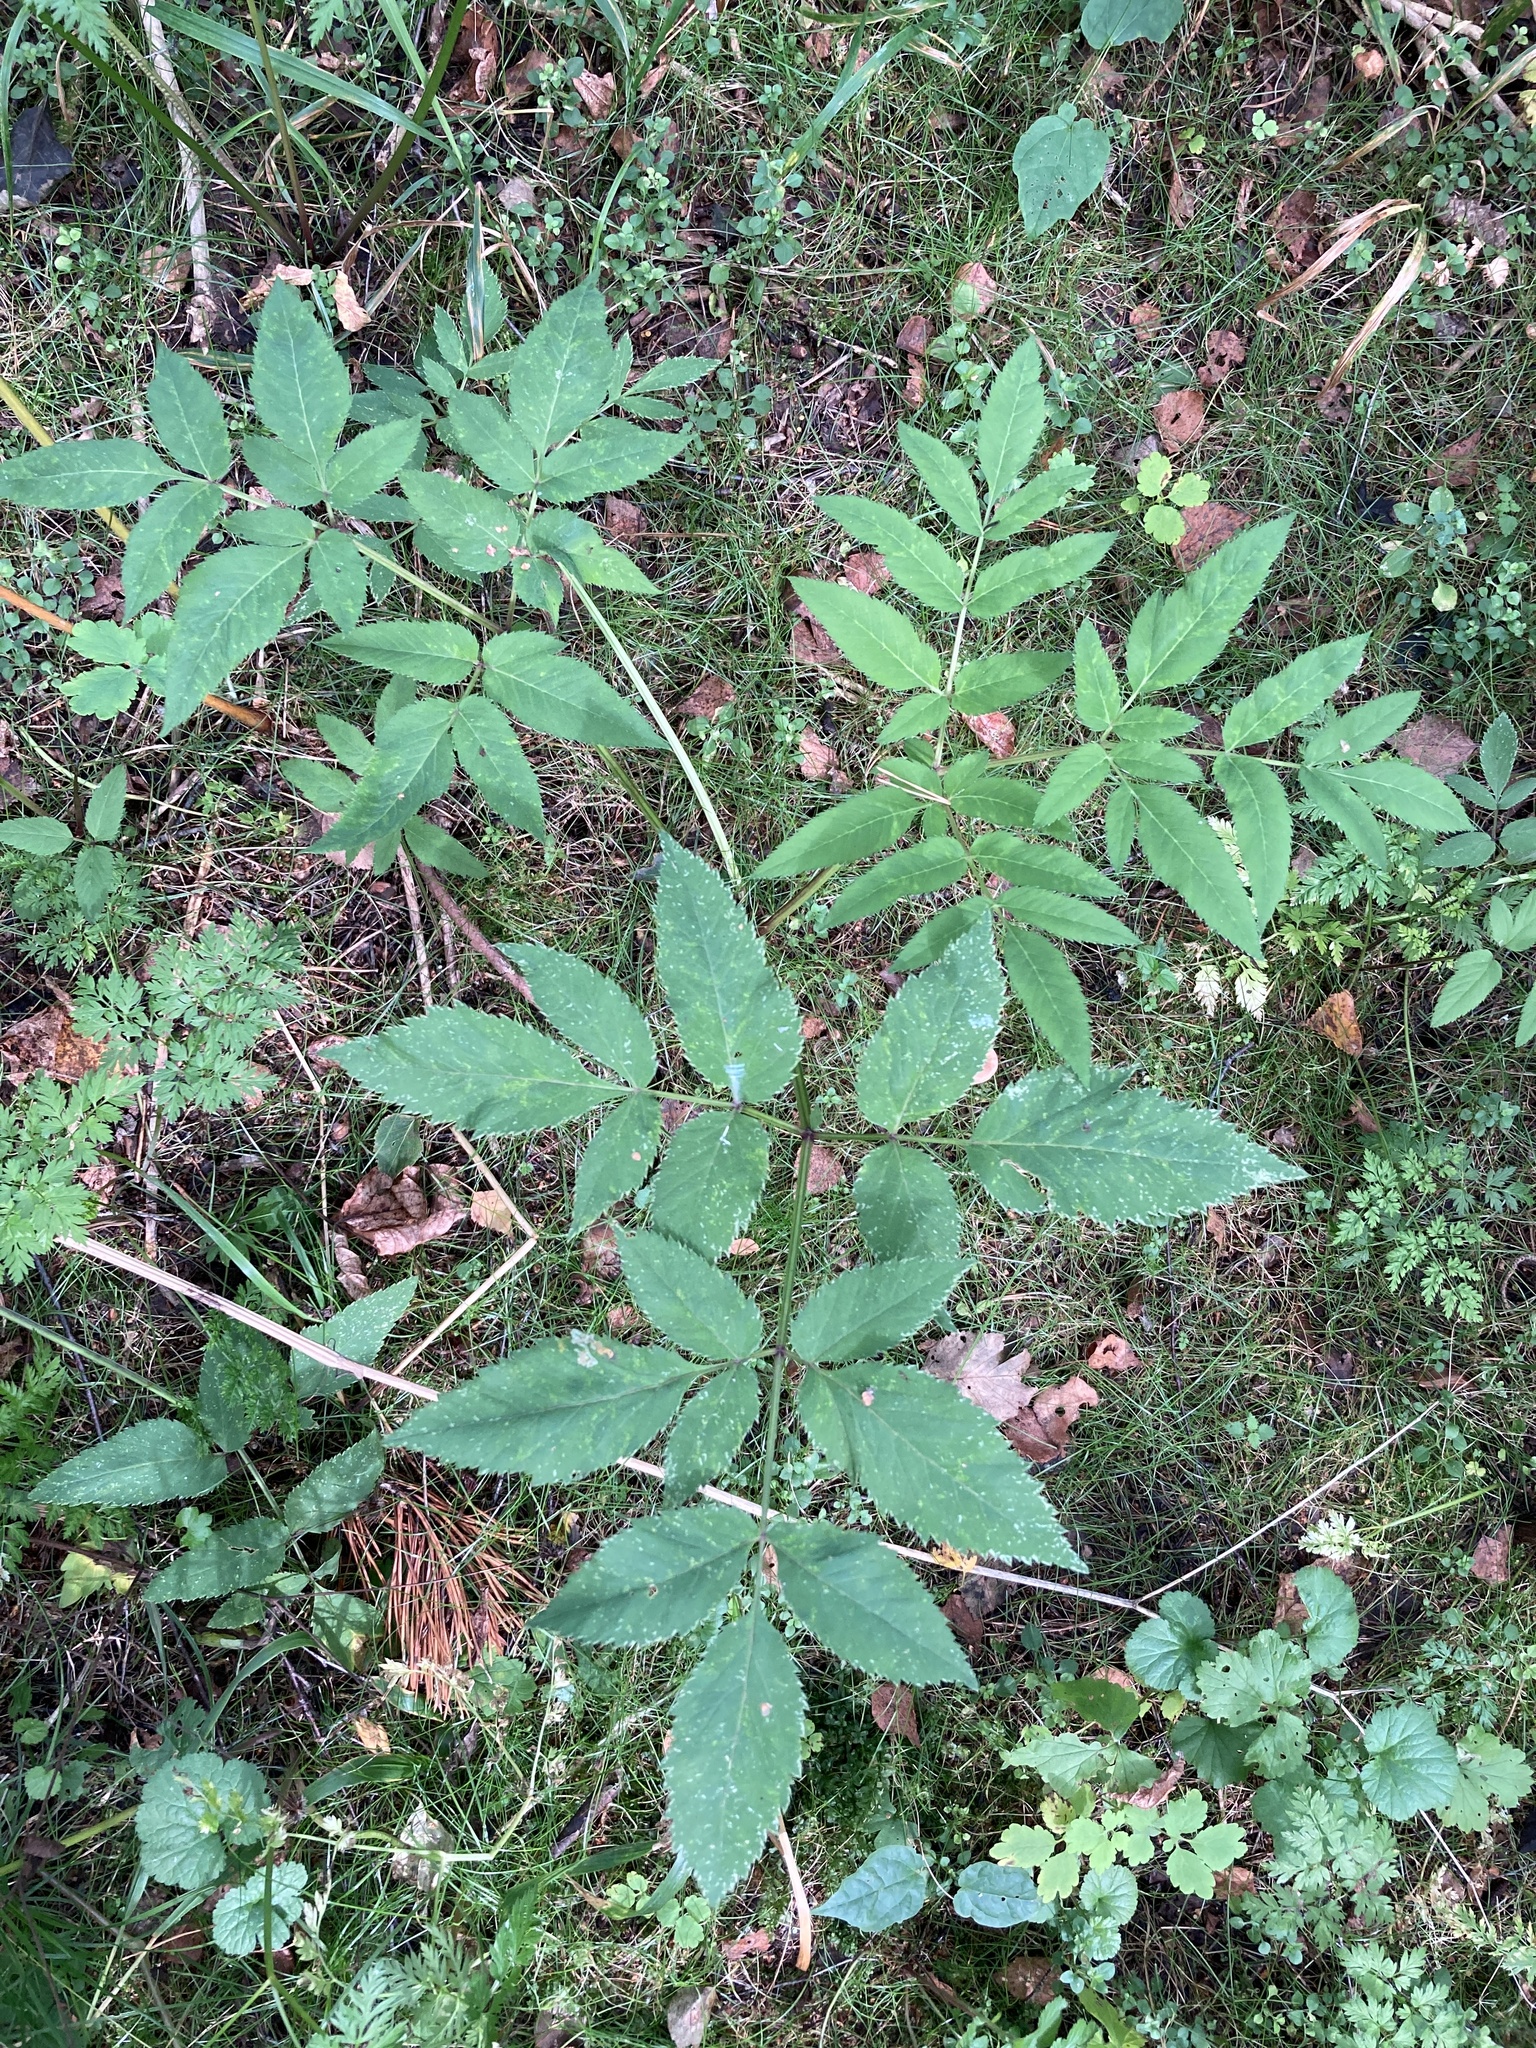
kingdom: Plantae
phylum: Tracheophyta
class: Magnoliopsida
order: Apiales
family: Apiaceae
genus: Angelica
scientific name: Angelica sylvestris
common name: Wild angelica
